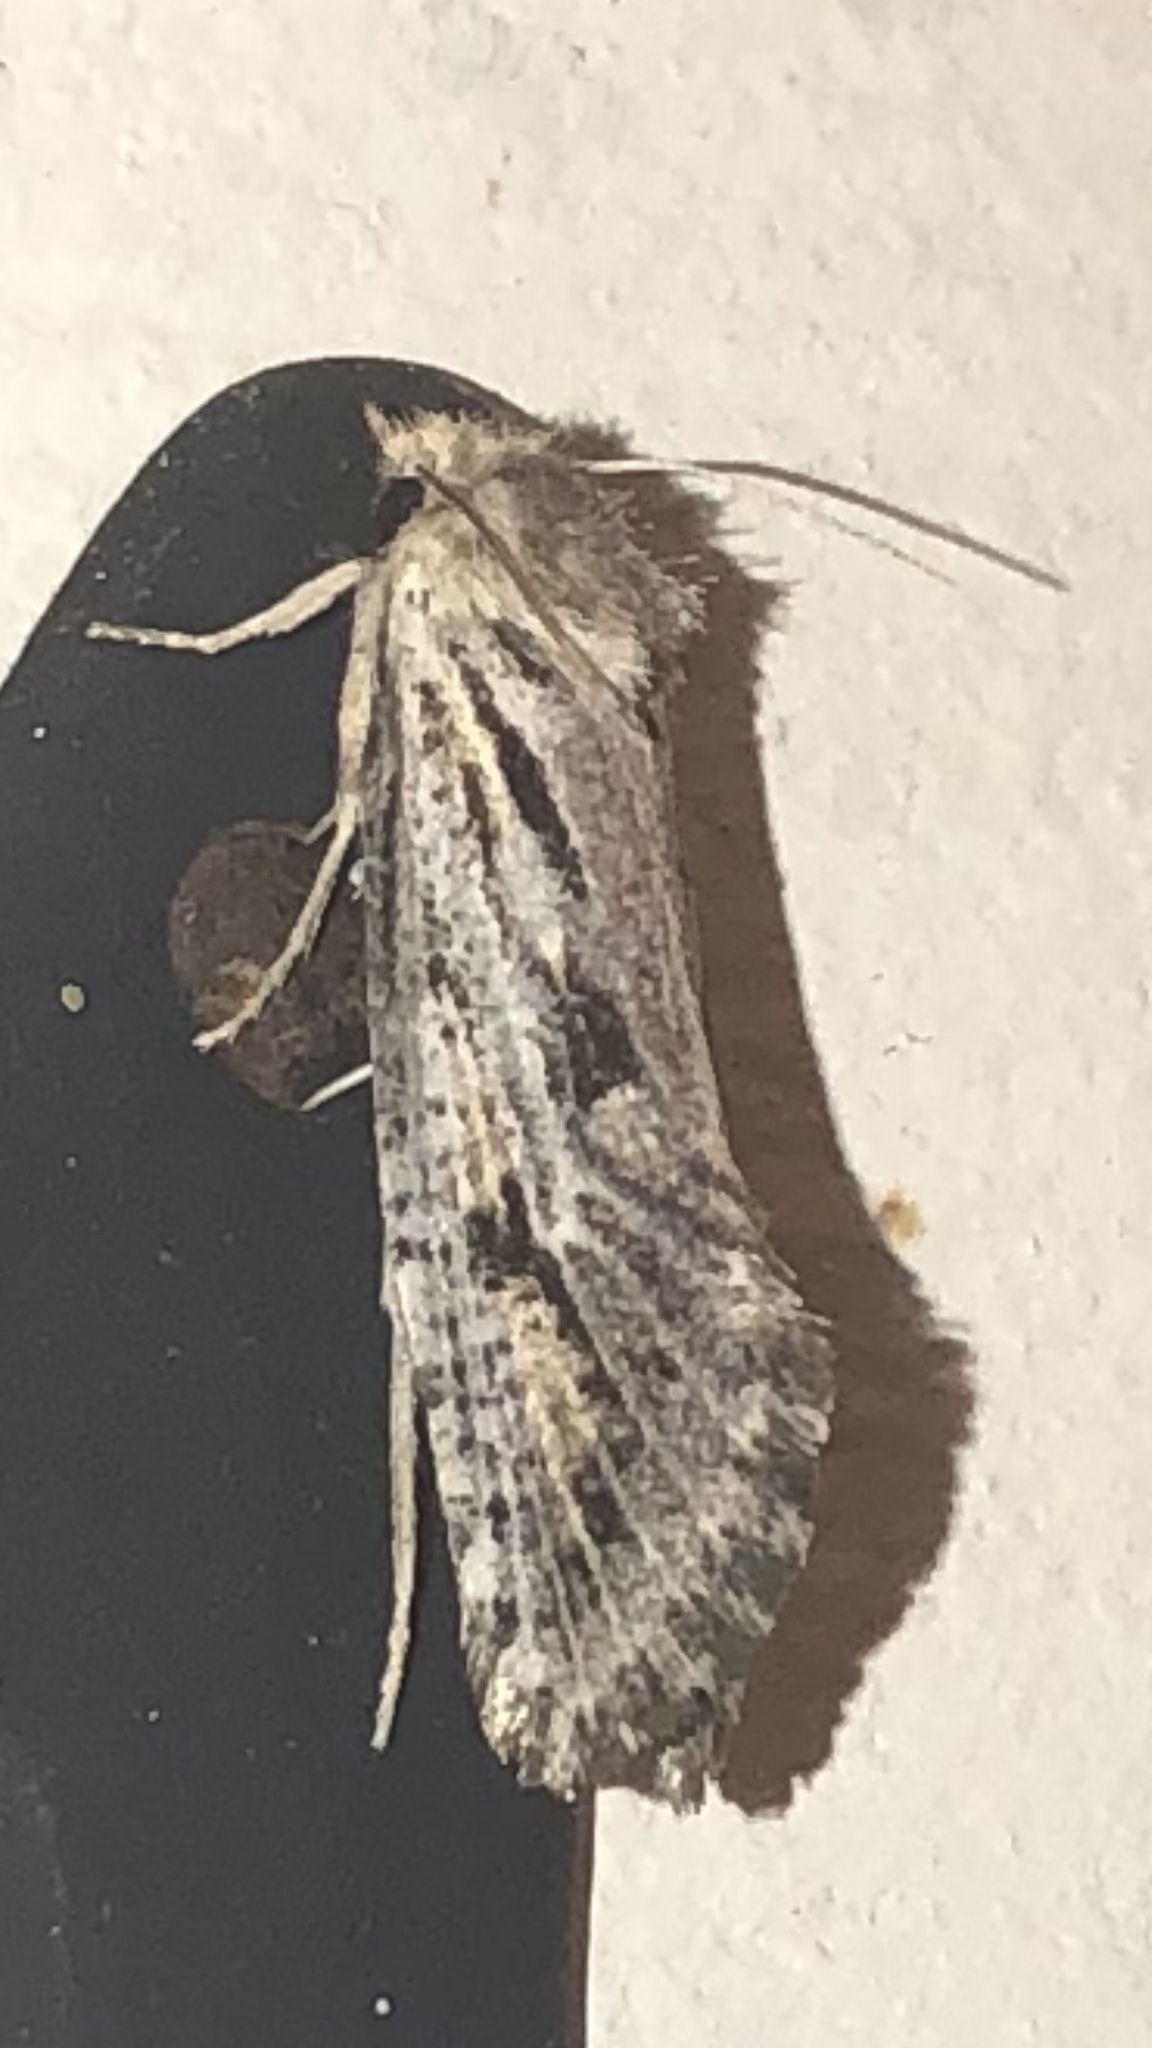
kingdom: Animalia
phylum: Arthropoda
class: Insecta
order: Lepidoptera
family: Tineidae
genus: Acrolophus
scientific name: Acrolophus popeanella
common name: Clemens' grass tubeworm moth
